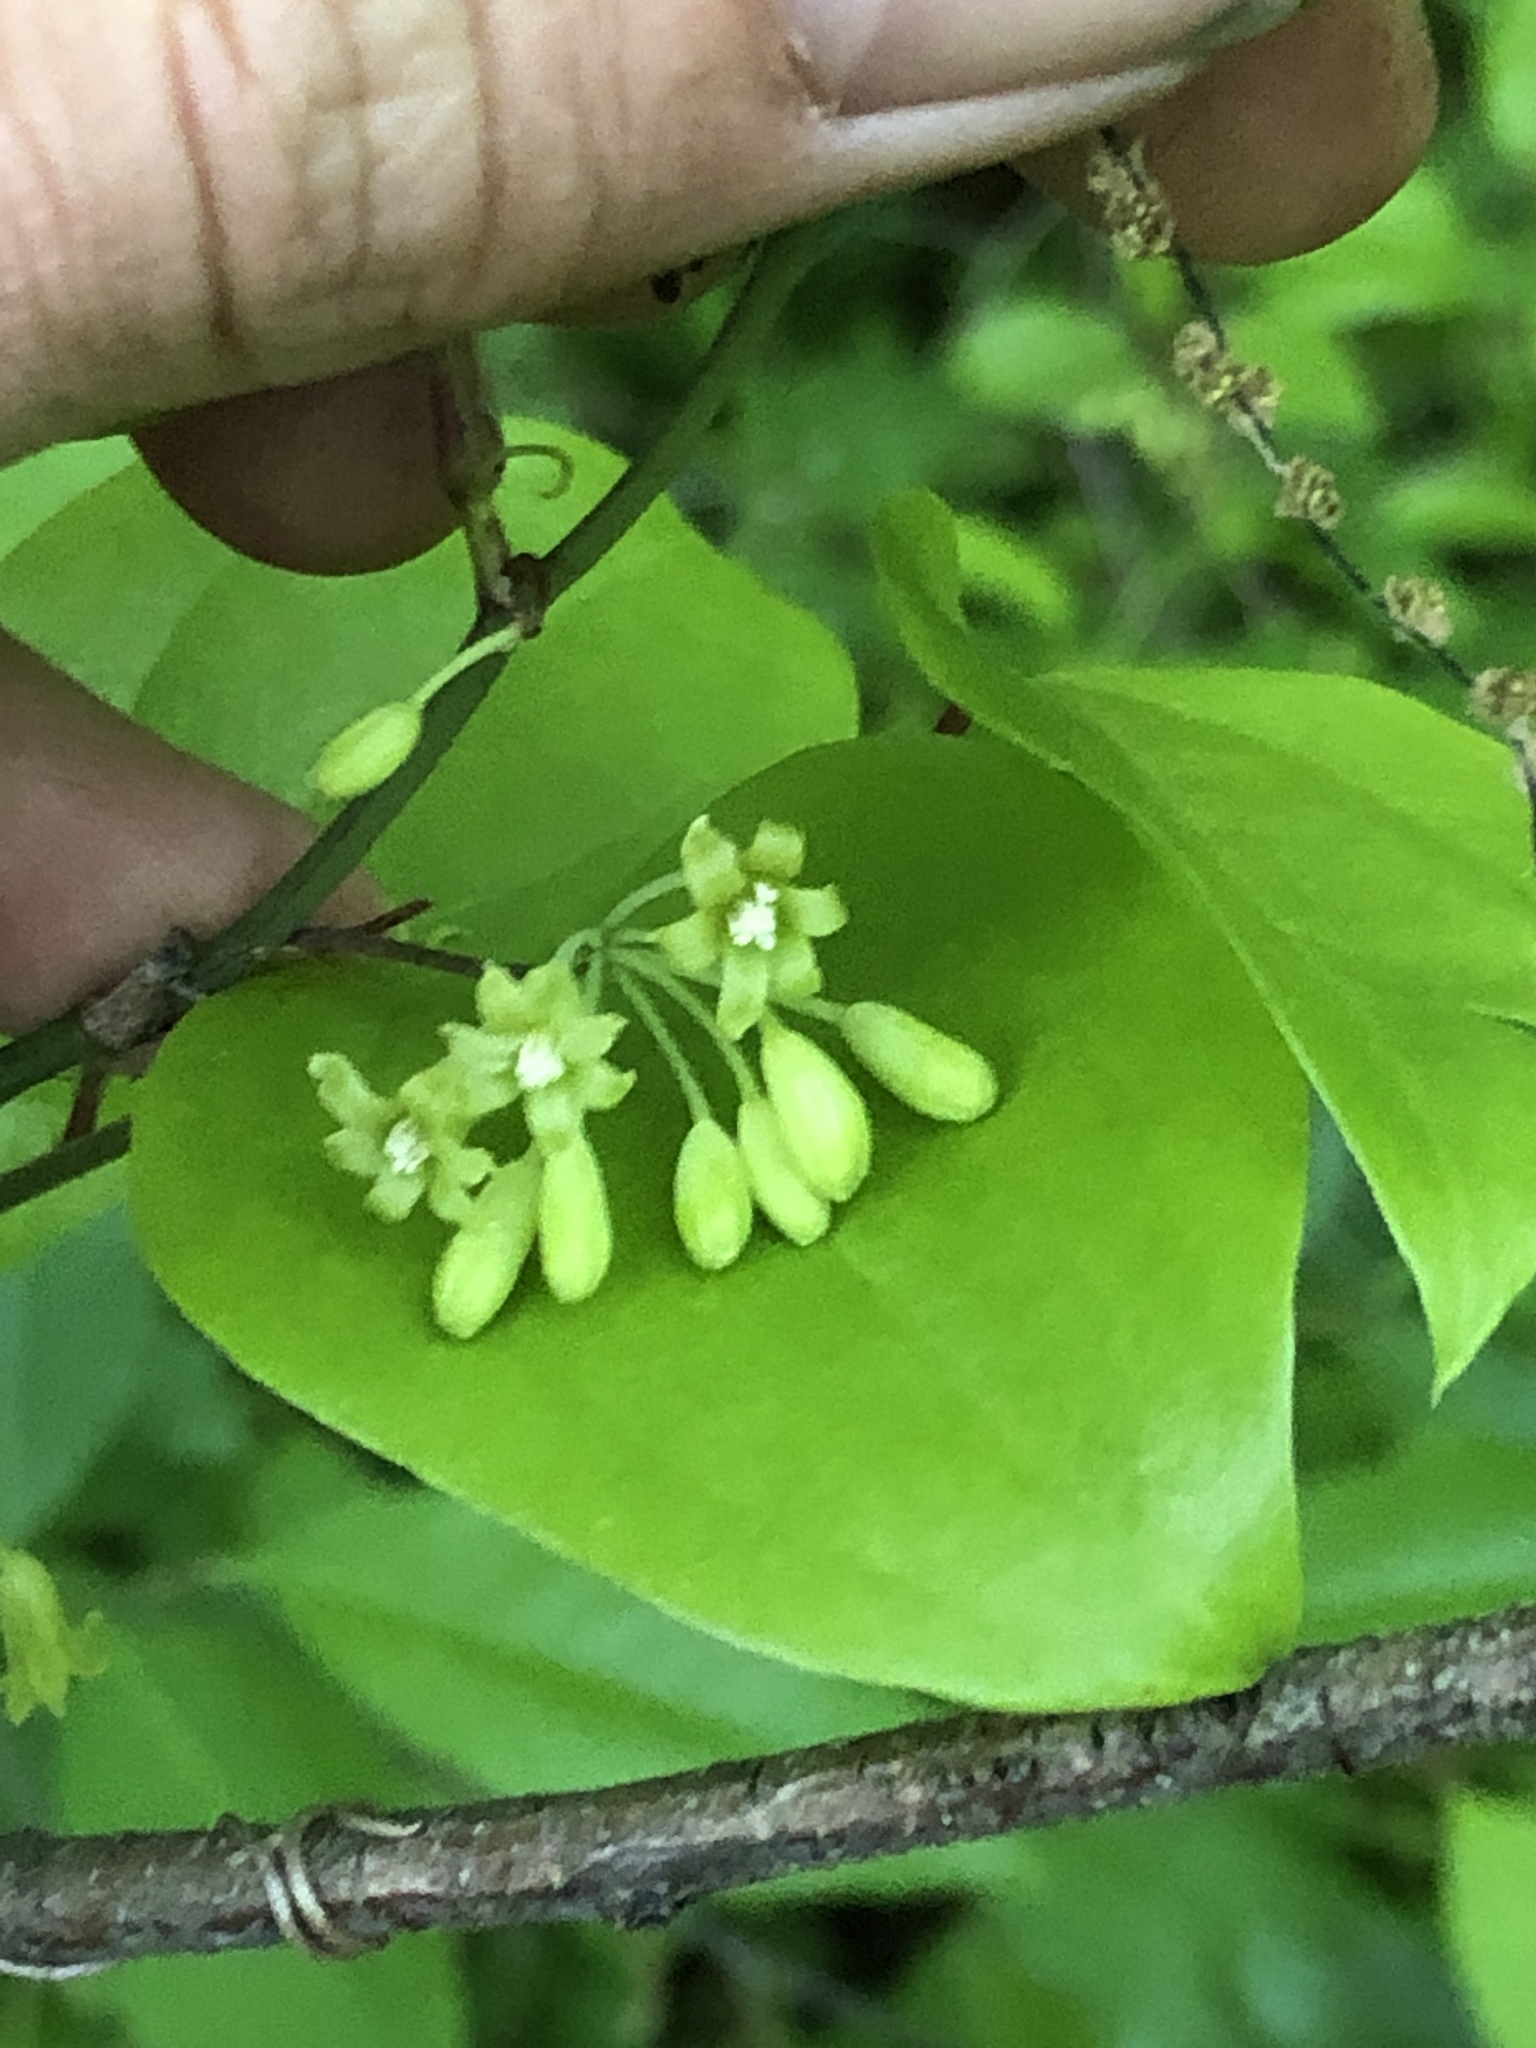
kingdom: Plantae
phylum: Tracheophyta
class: Liliopsida
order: Liliales
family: Smilacaceae
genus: Smilax
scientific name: Smilax rotundifolia
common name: Bullbriar
